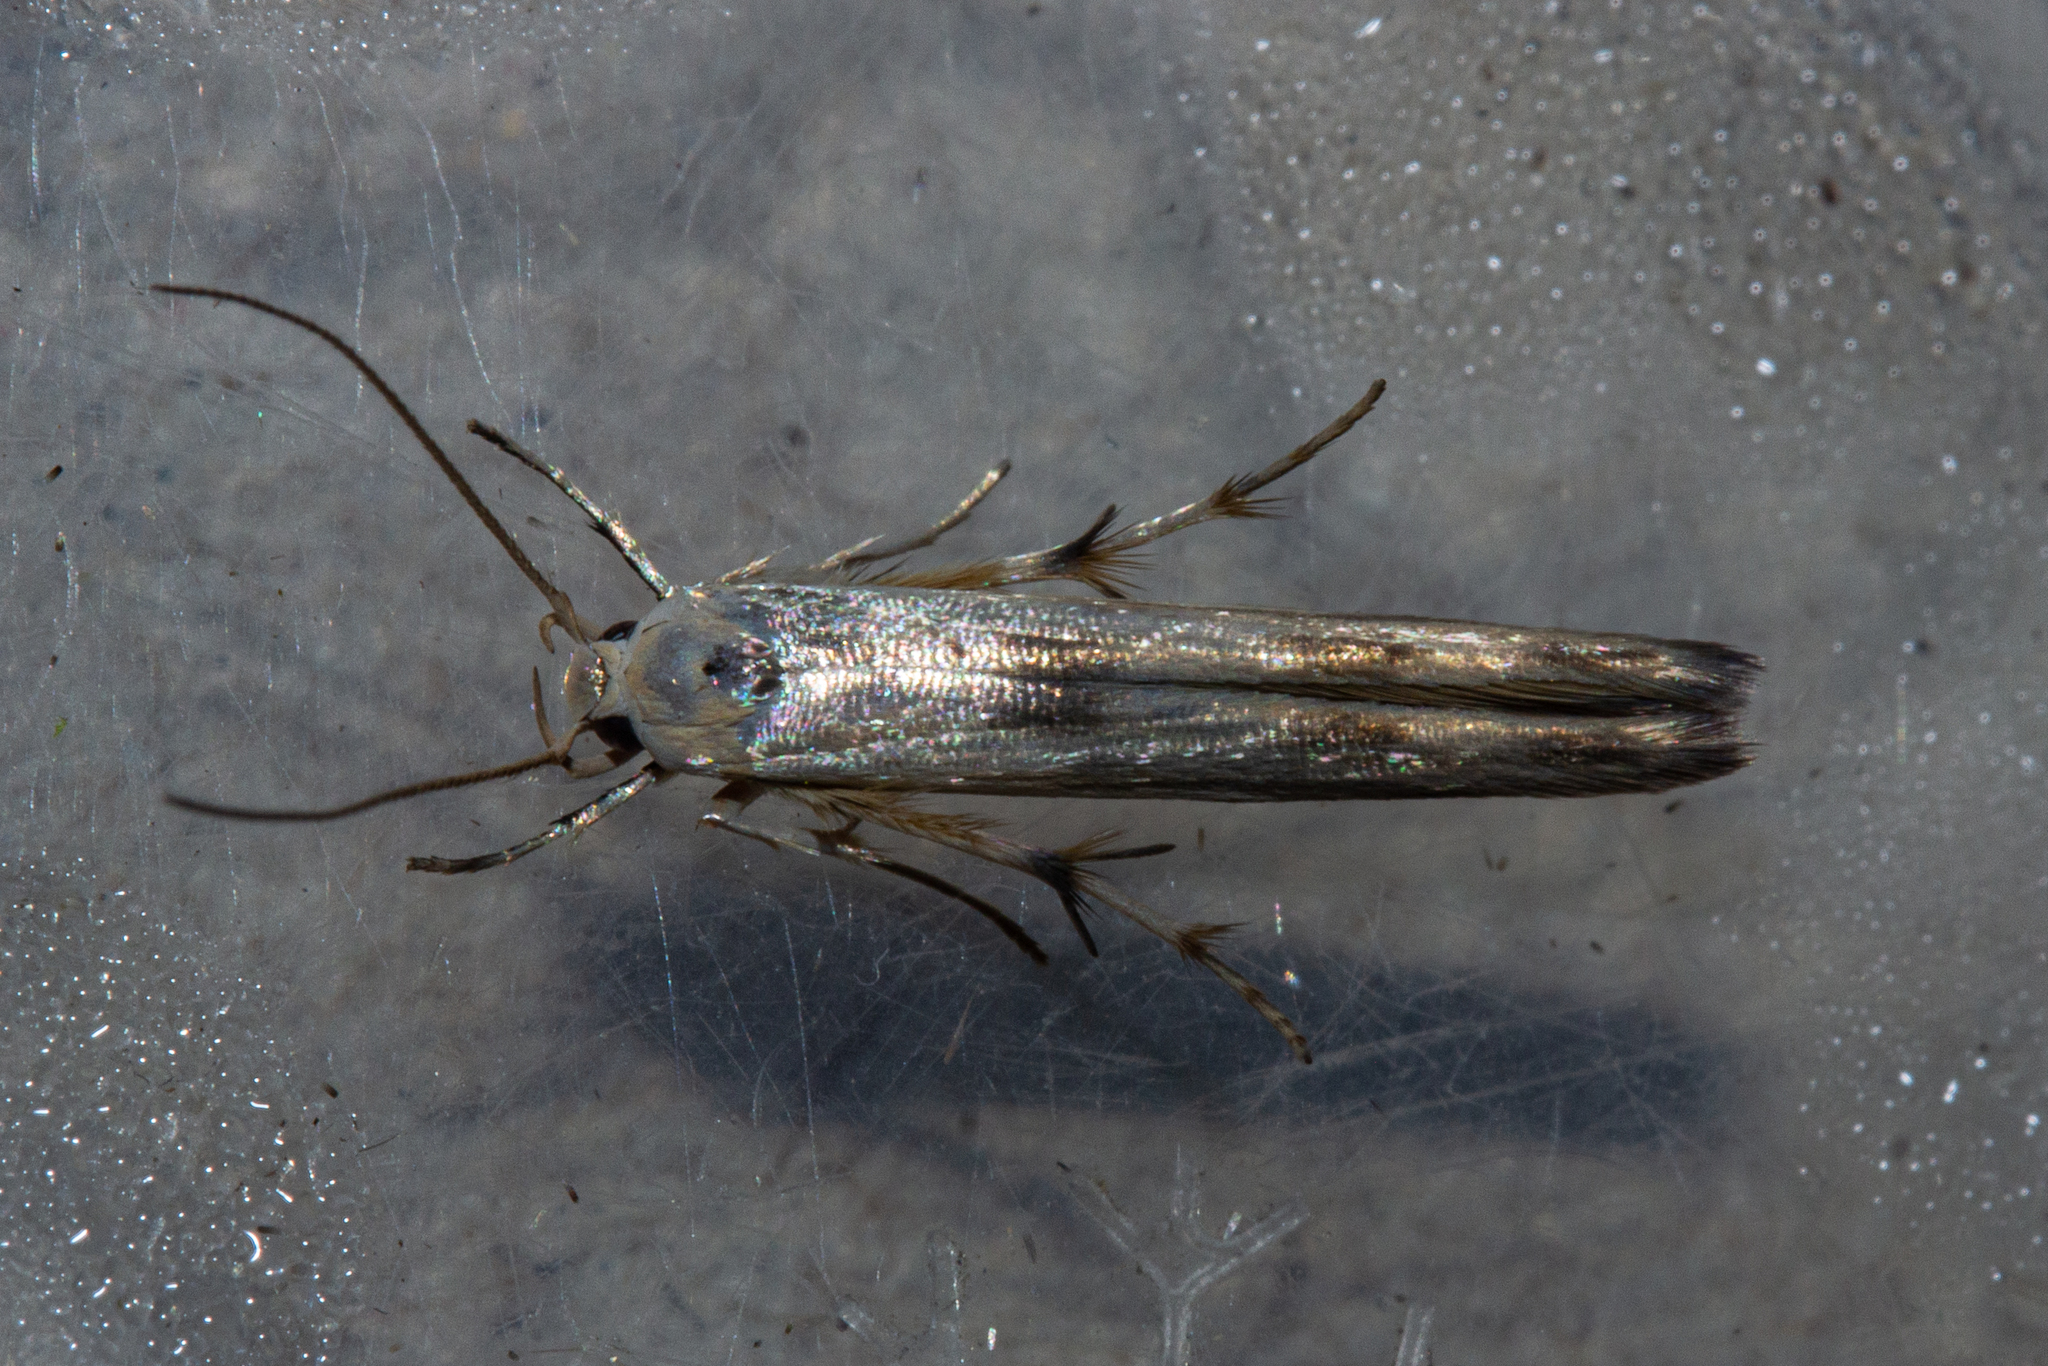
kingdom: Animalia
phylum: Arthropoda
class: Insecta
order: Lepidoptera
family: Stathmopodidae
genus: Stathmopoda
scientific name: Stathmopoda horticola
